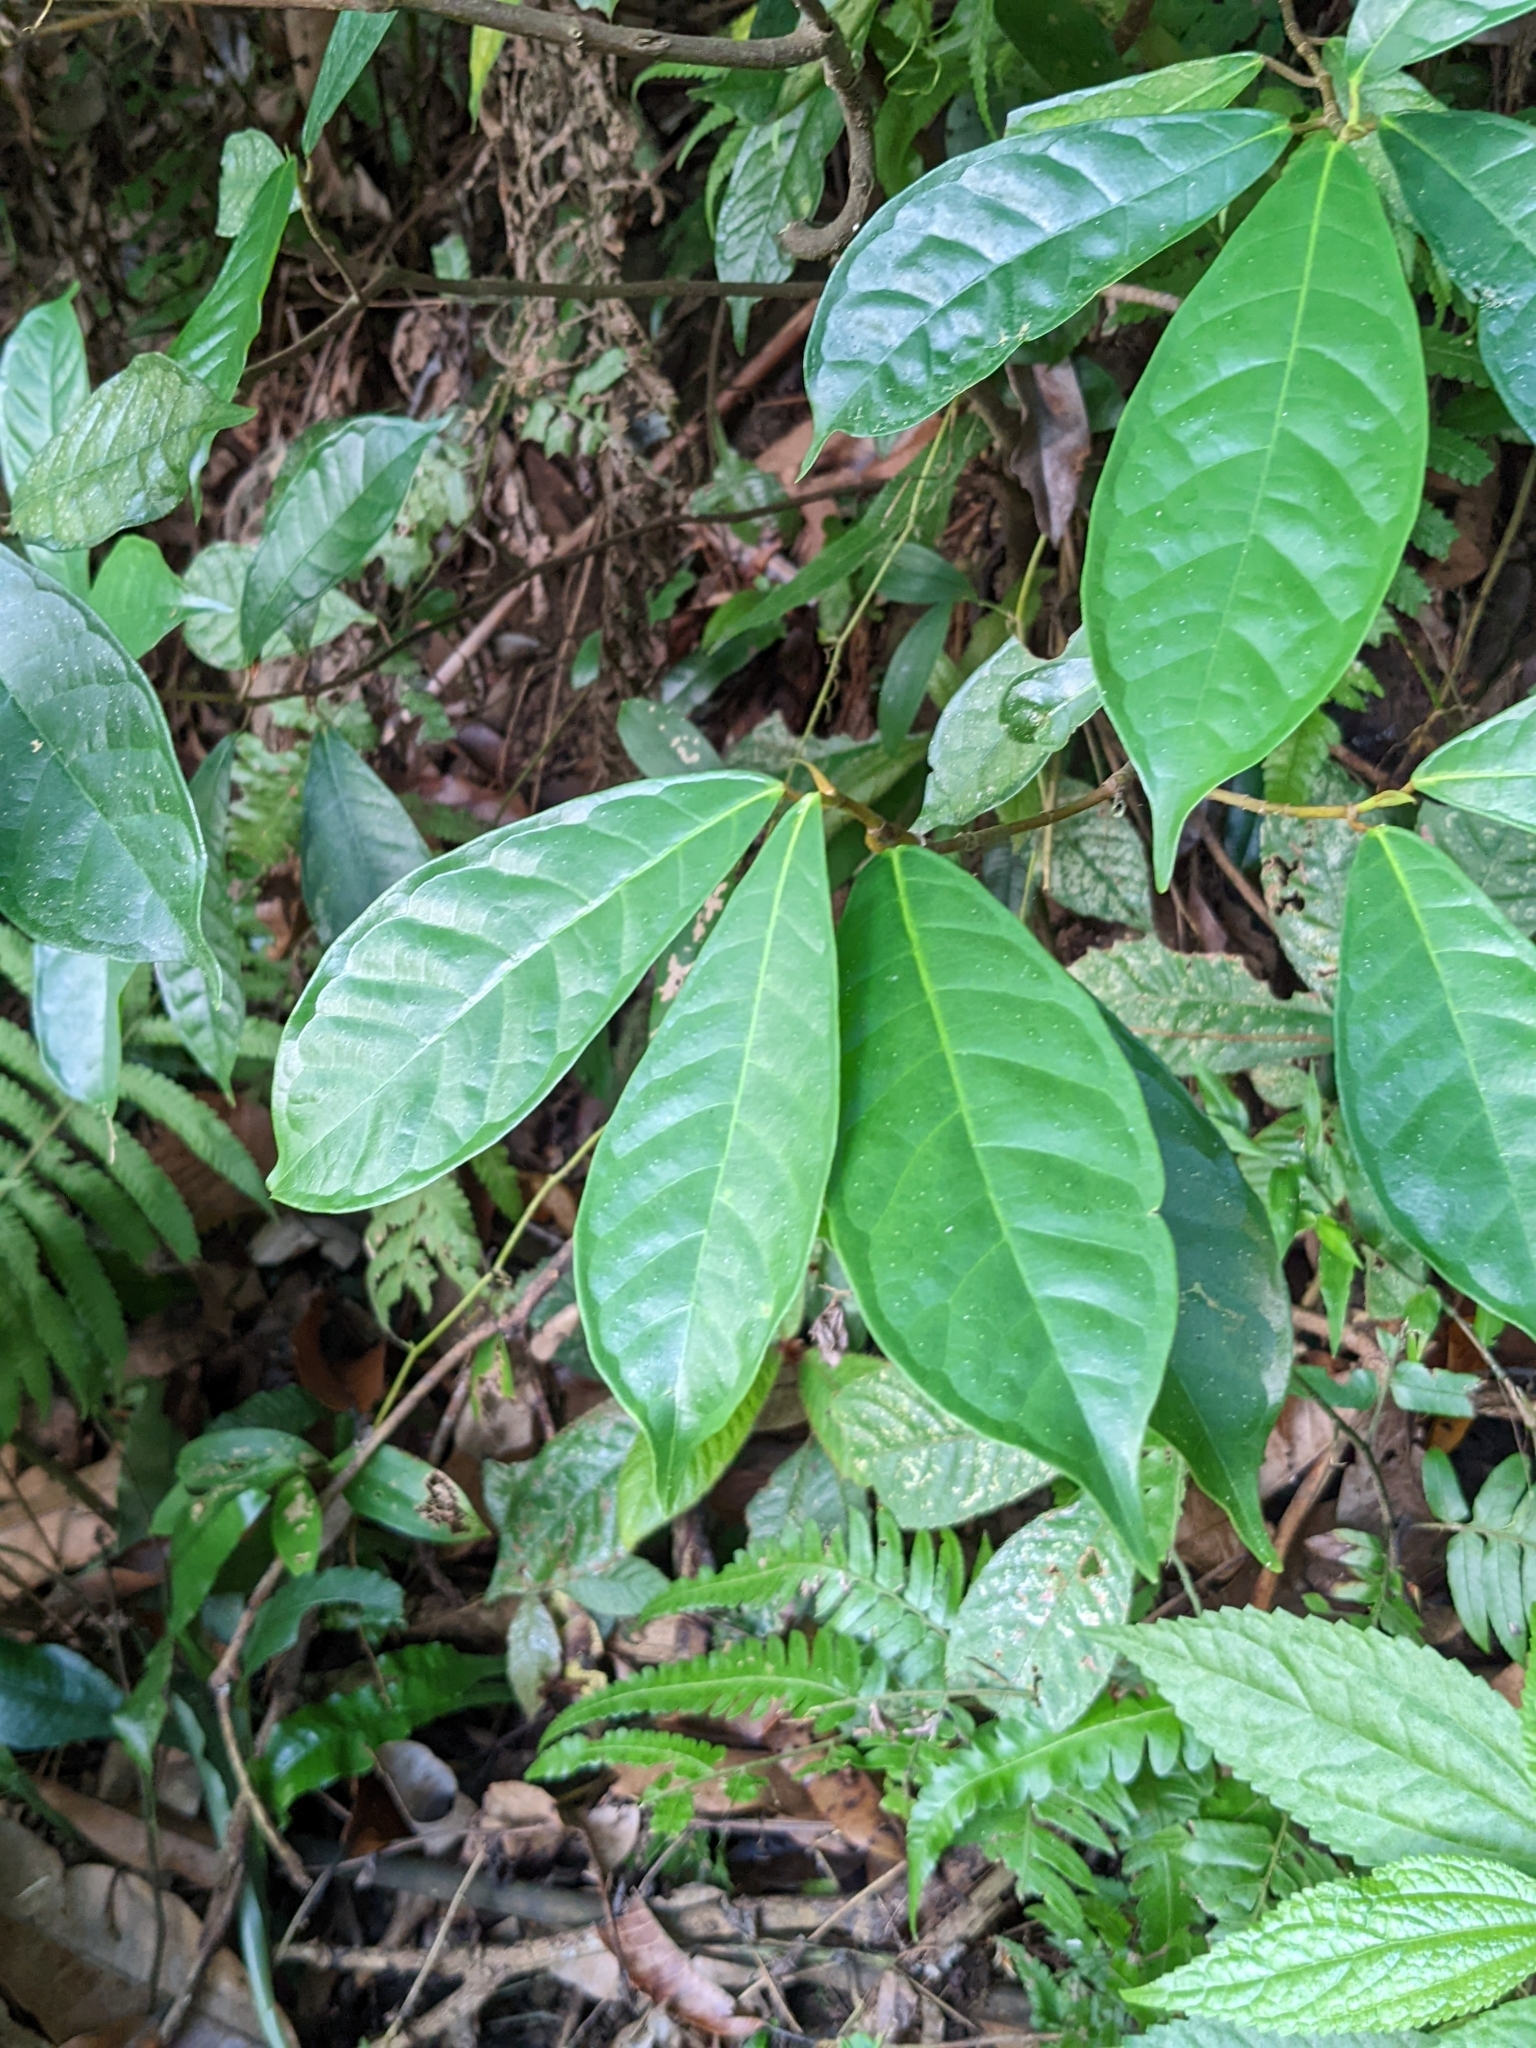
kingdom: Plantae
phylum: Tracheophyta
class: Magnoliopsida
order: Rosales
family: Moraceae
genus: Ficus
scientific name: Ficus nervosa
